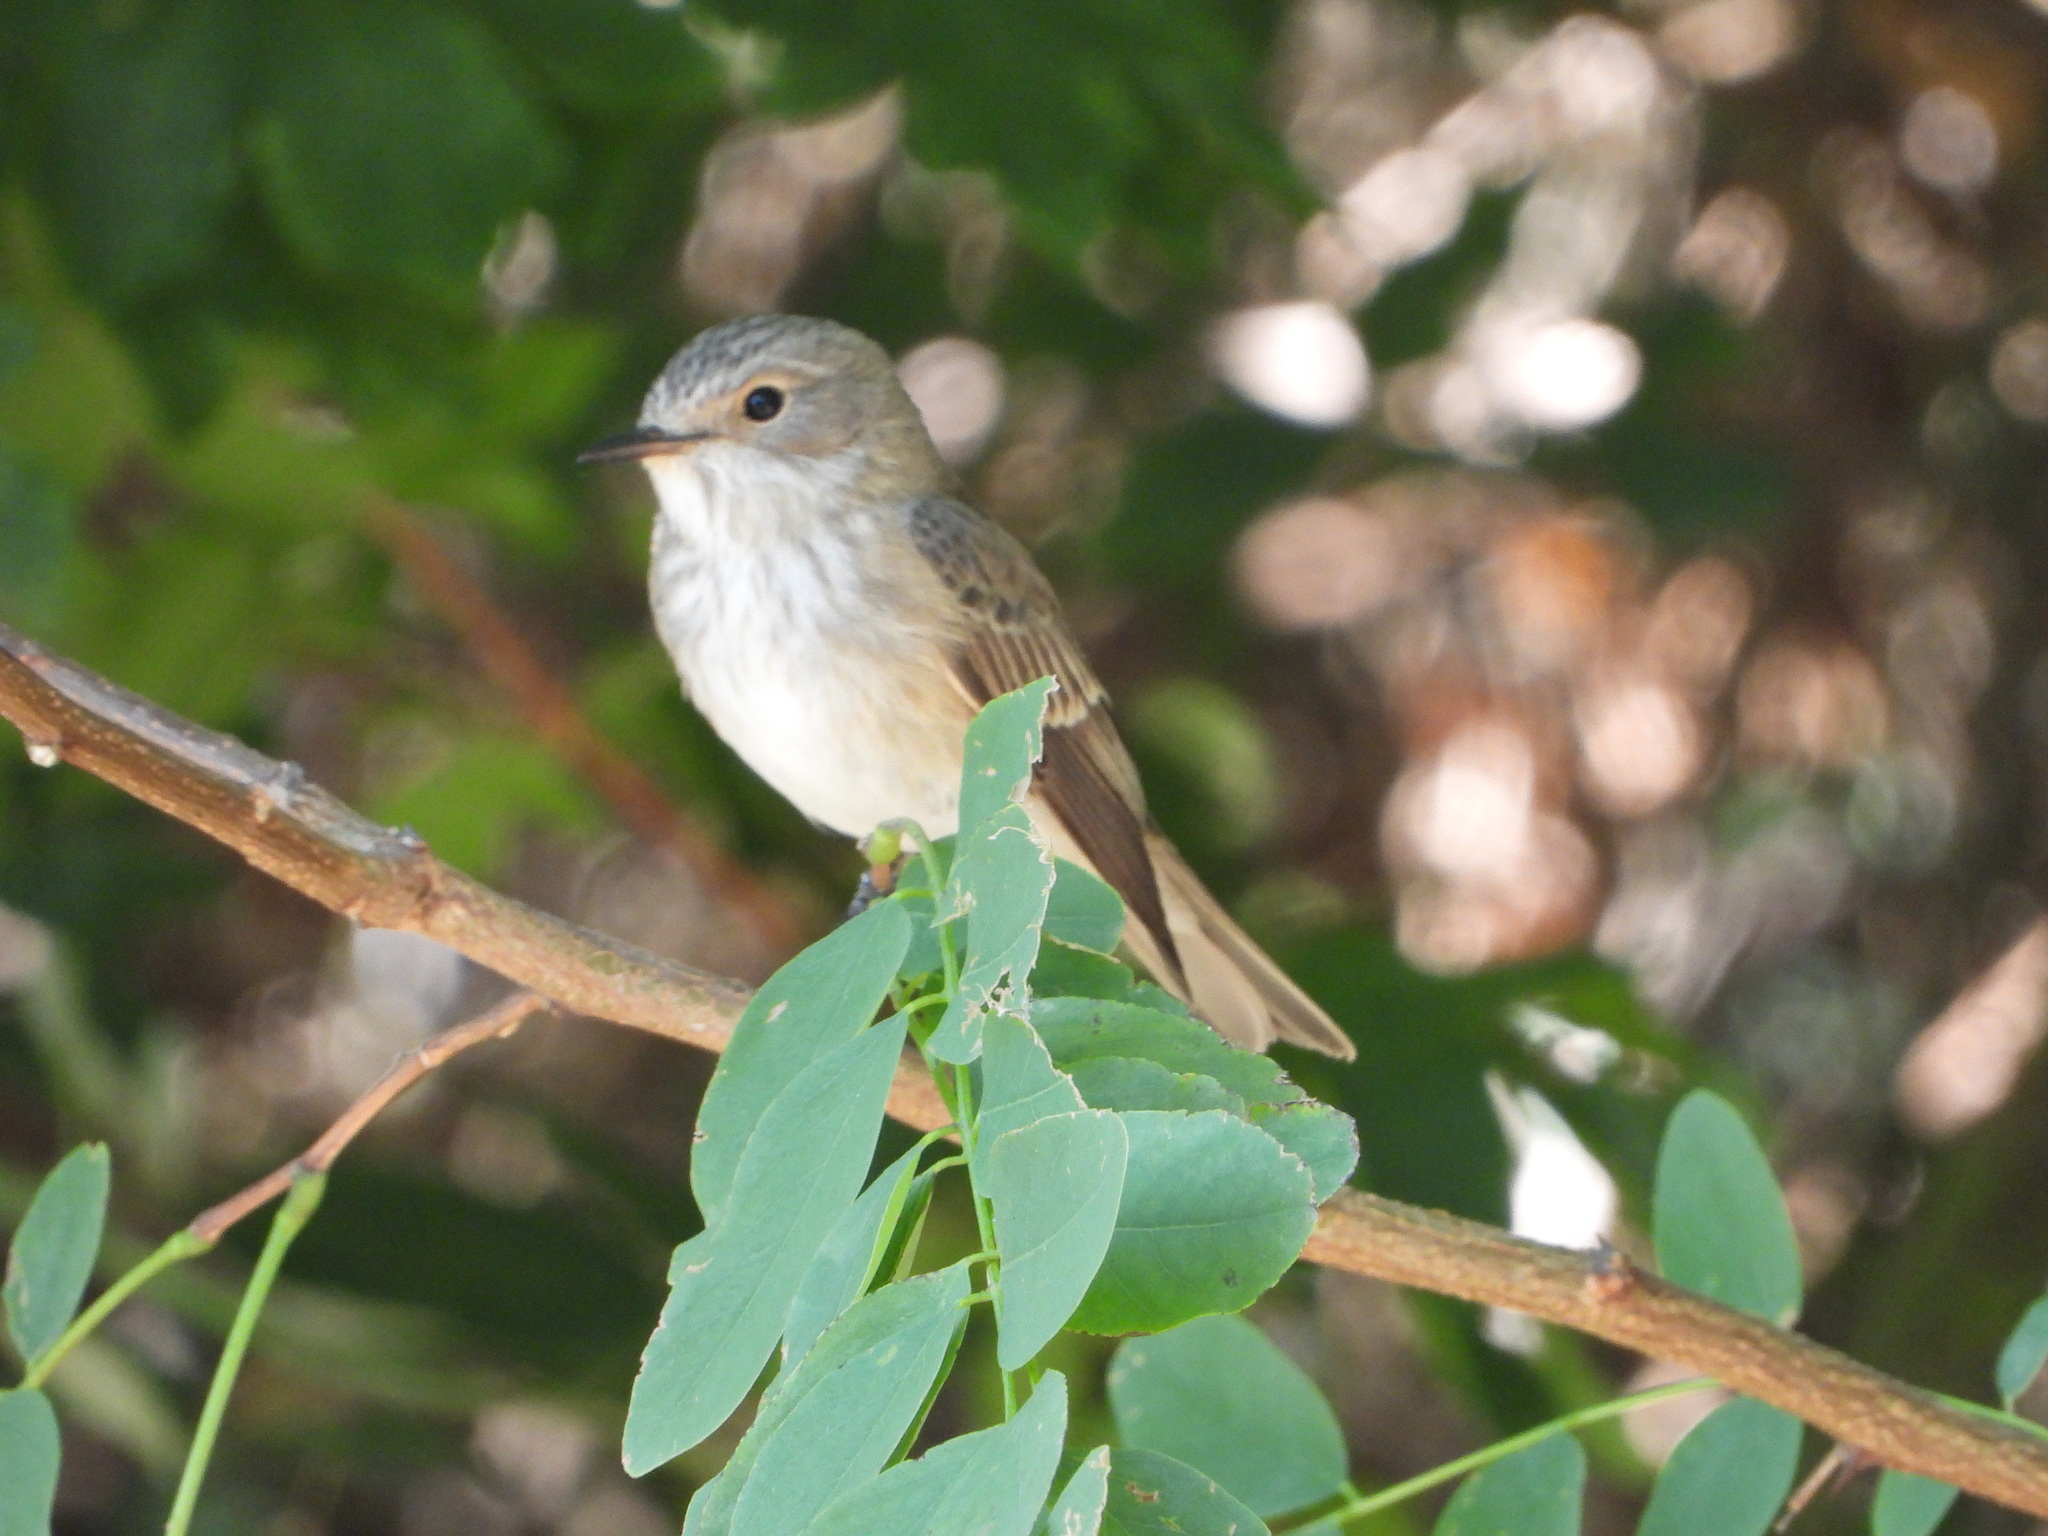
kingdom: Animalia
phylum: Chordata
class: Aves
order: Passeriformes
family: Muscicapidae
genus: Muscicapa
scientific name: Muscicapa striata
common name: Spotted flycatcher
